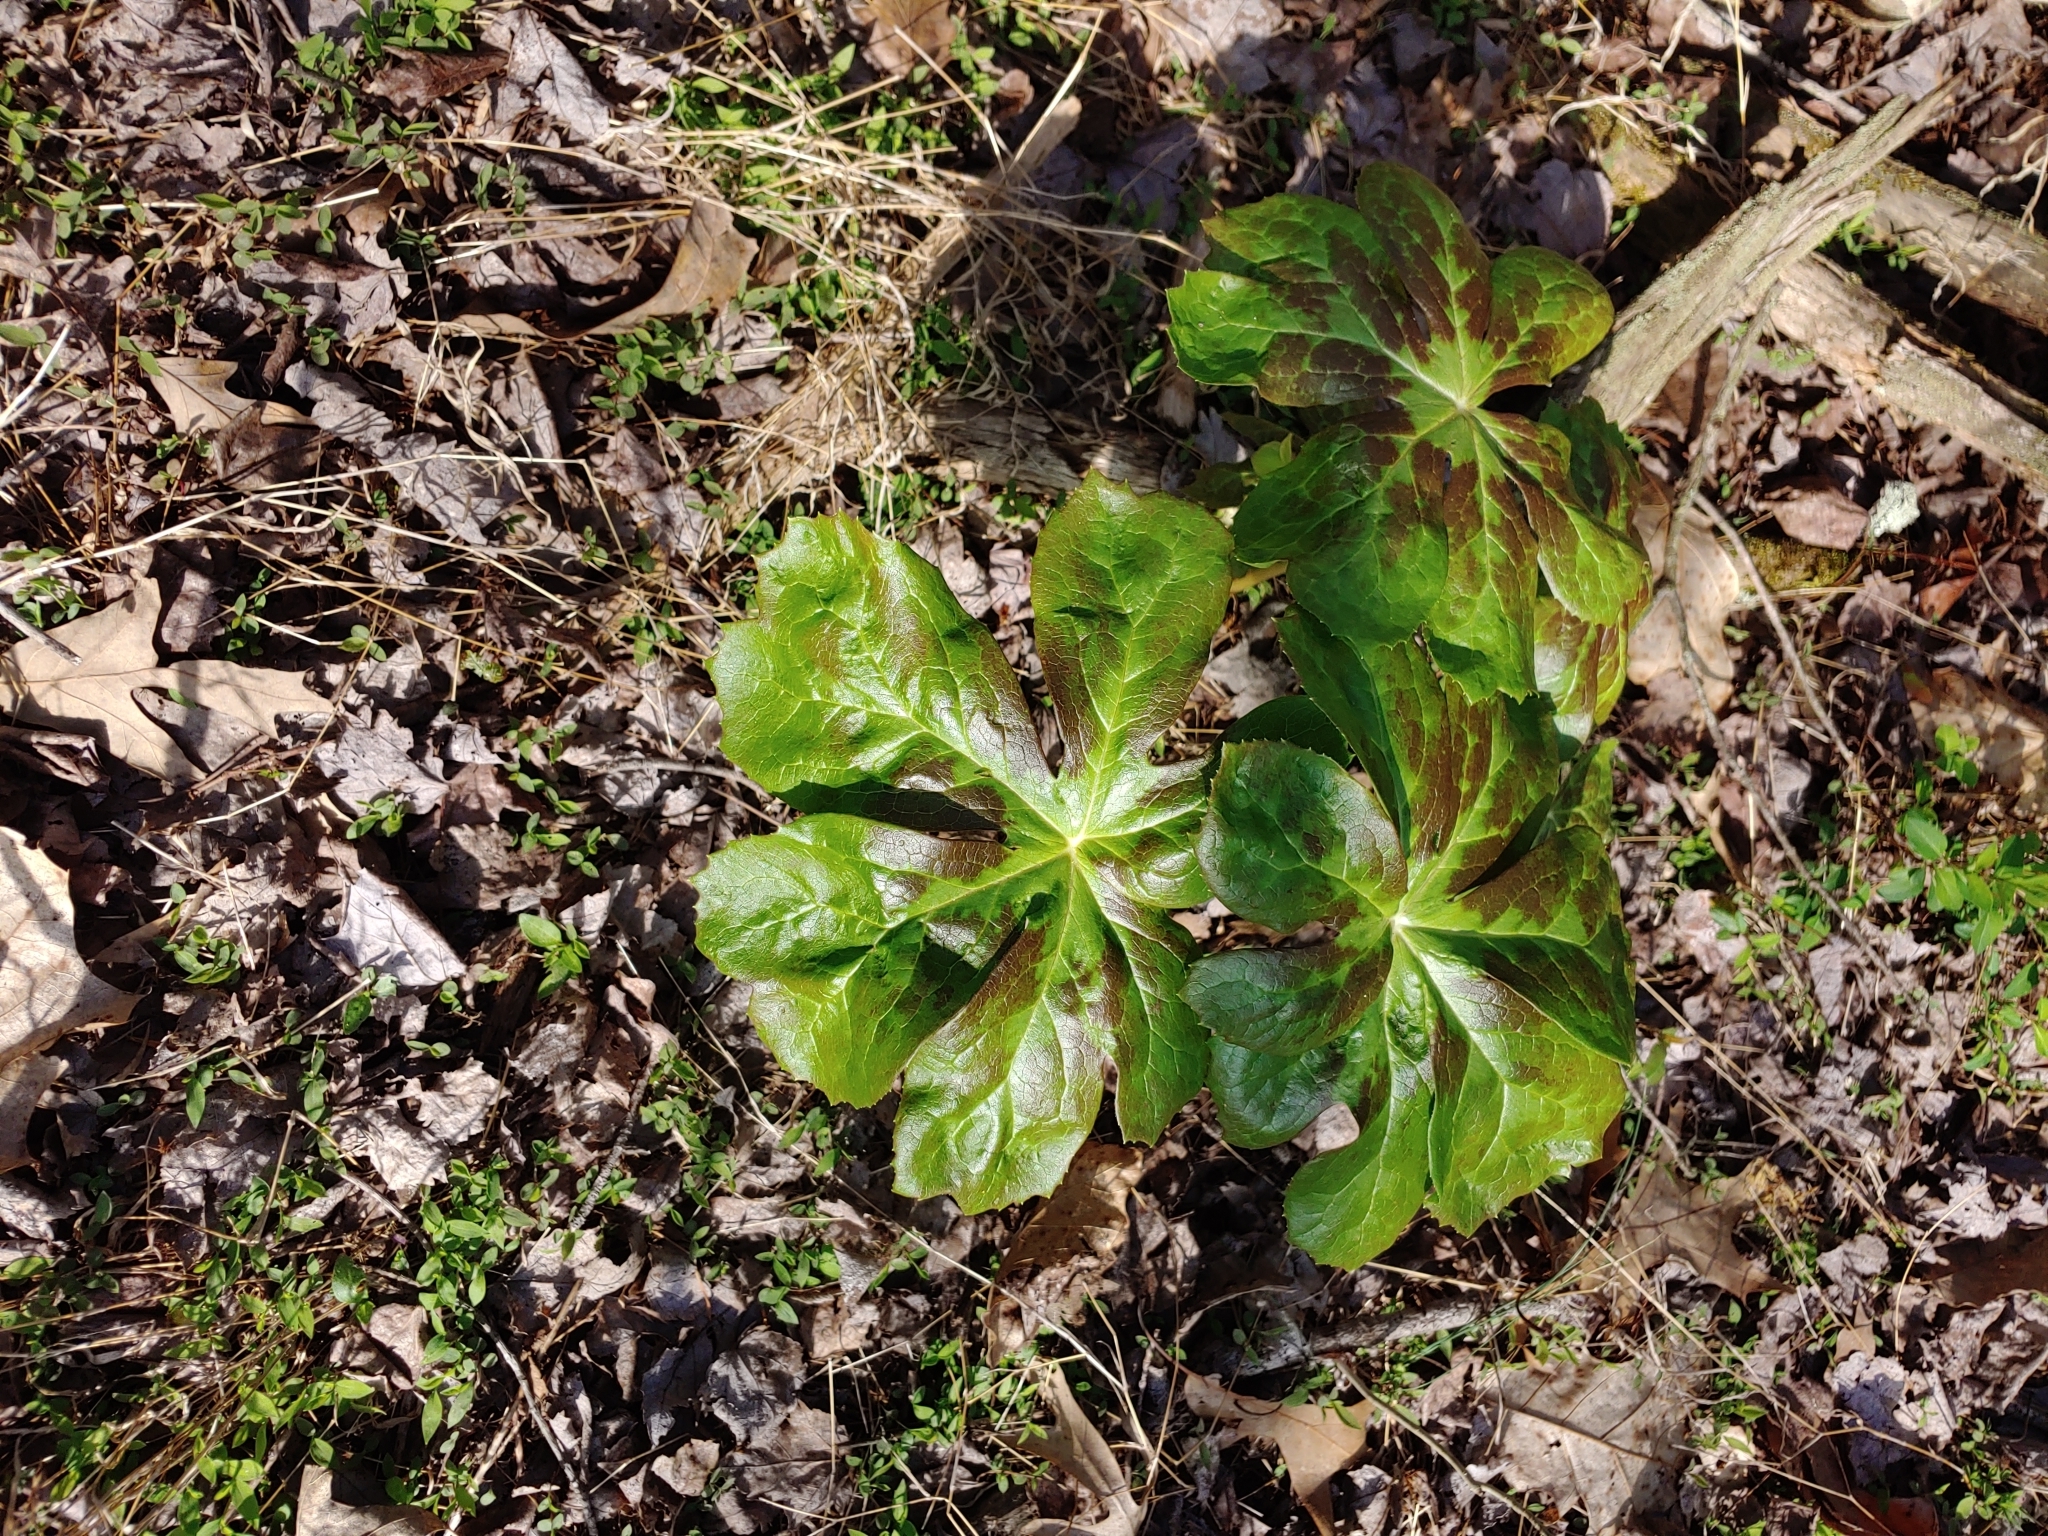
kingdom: Plantae
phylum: Tracheophyta
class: Magnoliopsida
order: Ranunculales
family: Berberidaceae
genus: Podophyllum
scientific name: Podophyllum peltatum
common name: Wild mandrake
